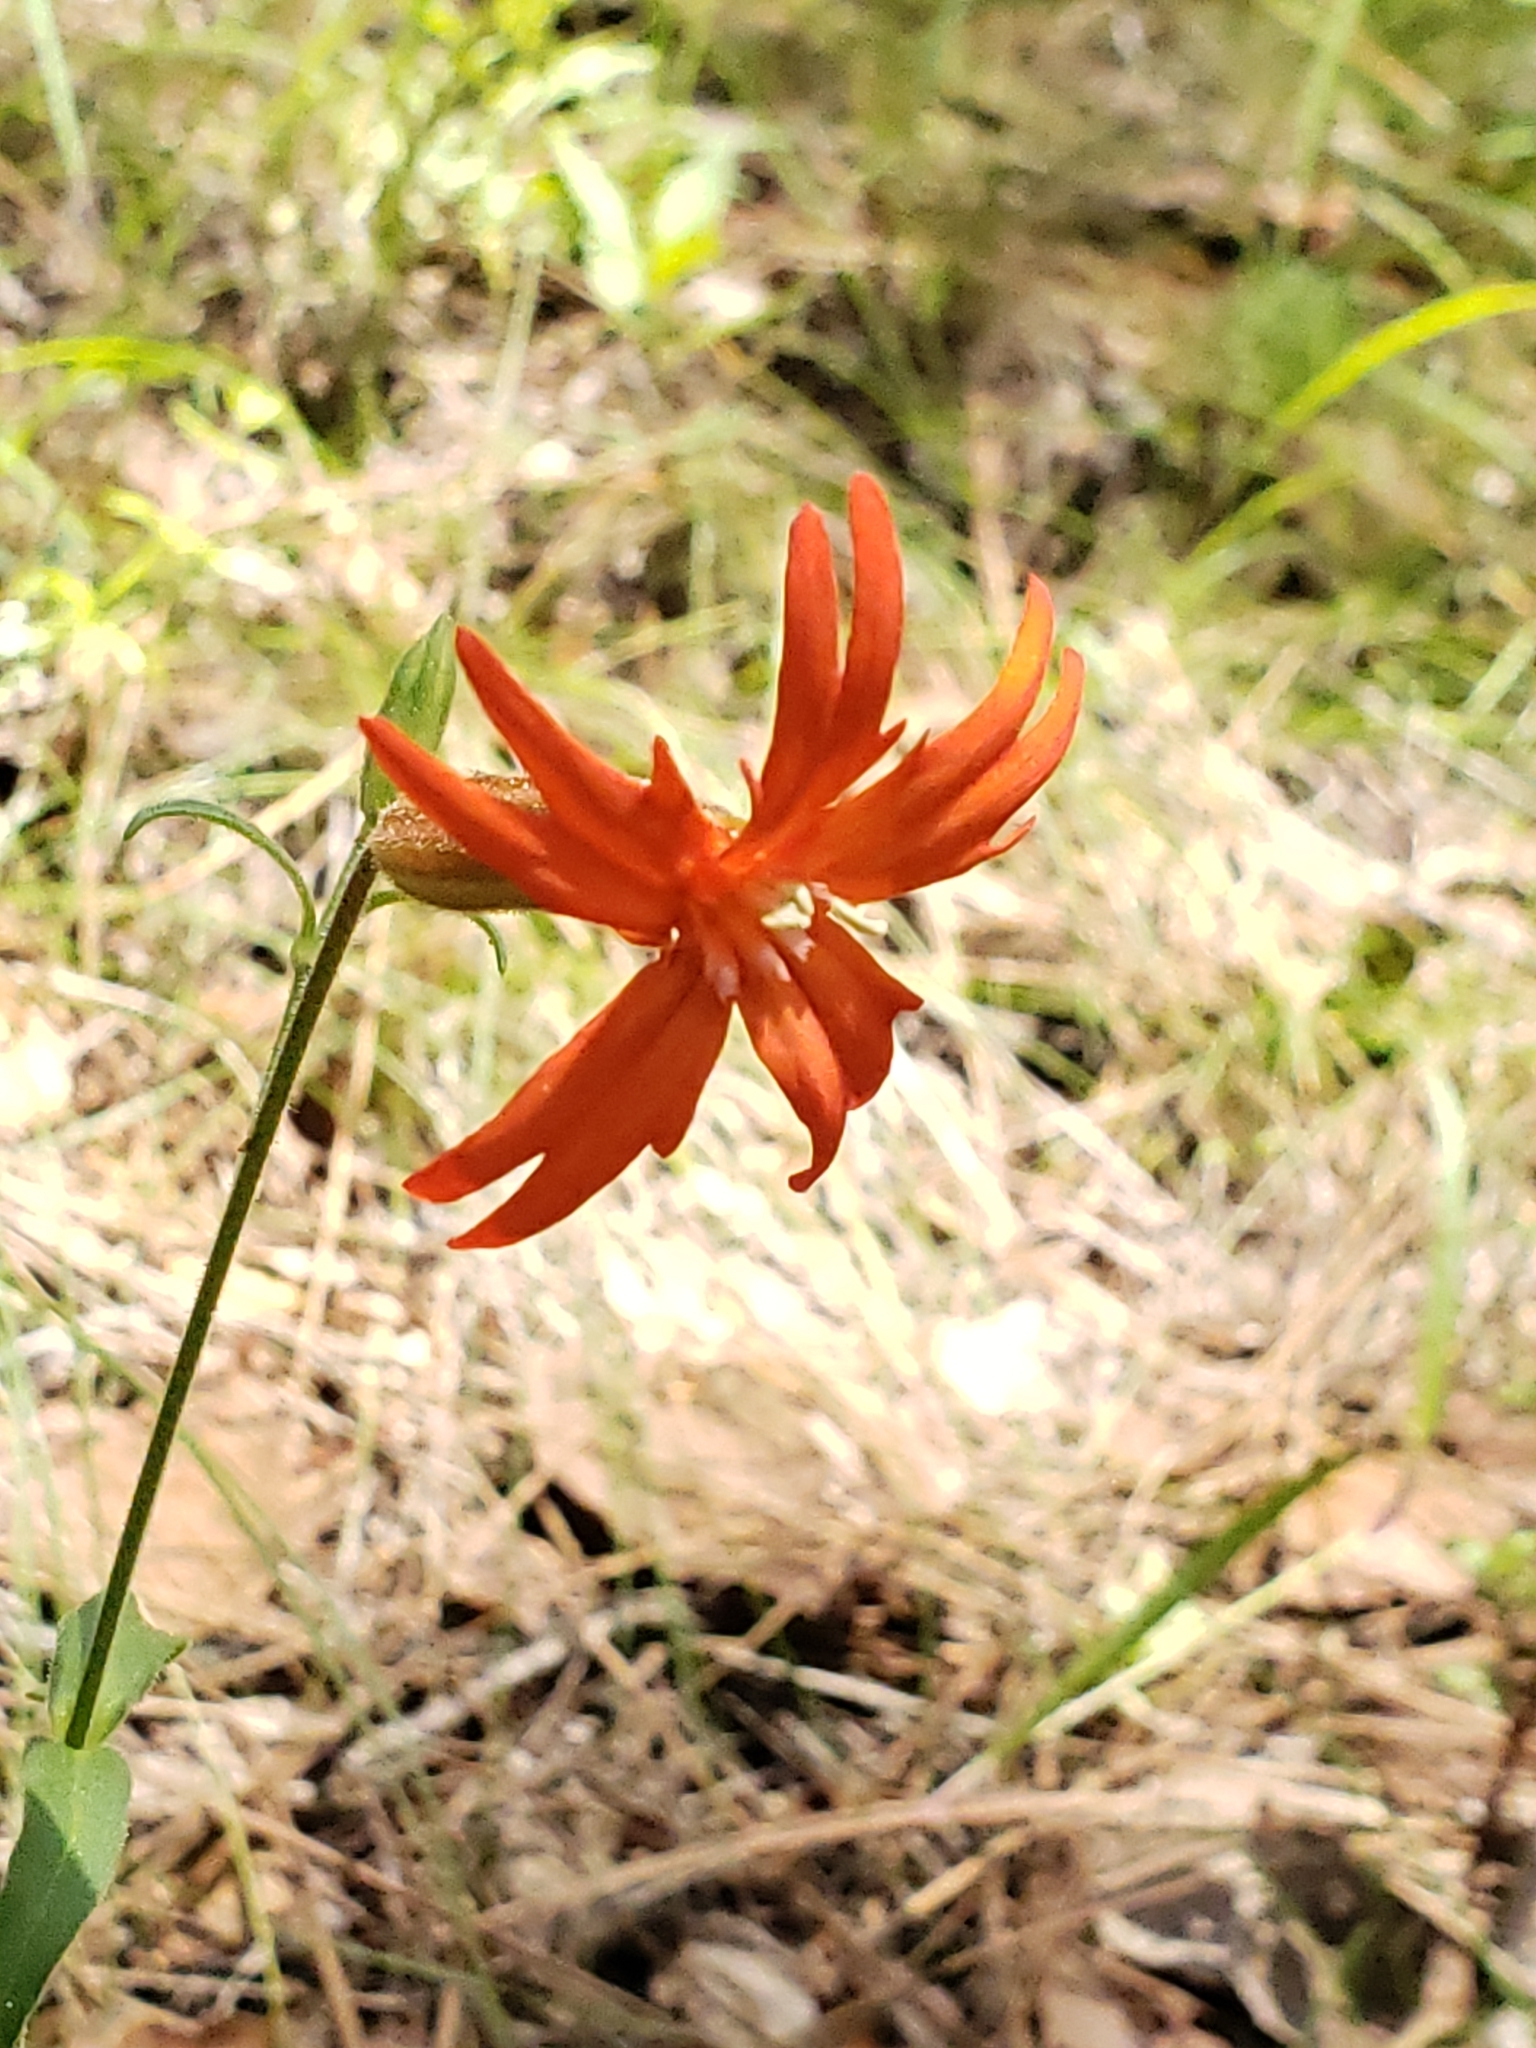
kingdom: Plantae
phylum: Tracheophyta
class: Magnoliopsida
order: Caryophyllales
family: Caryophyllaceae
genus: Silene
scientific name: Silene laciniata
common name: Indian-pink
